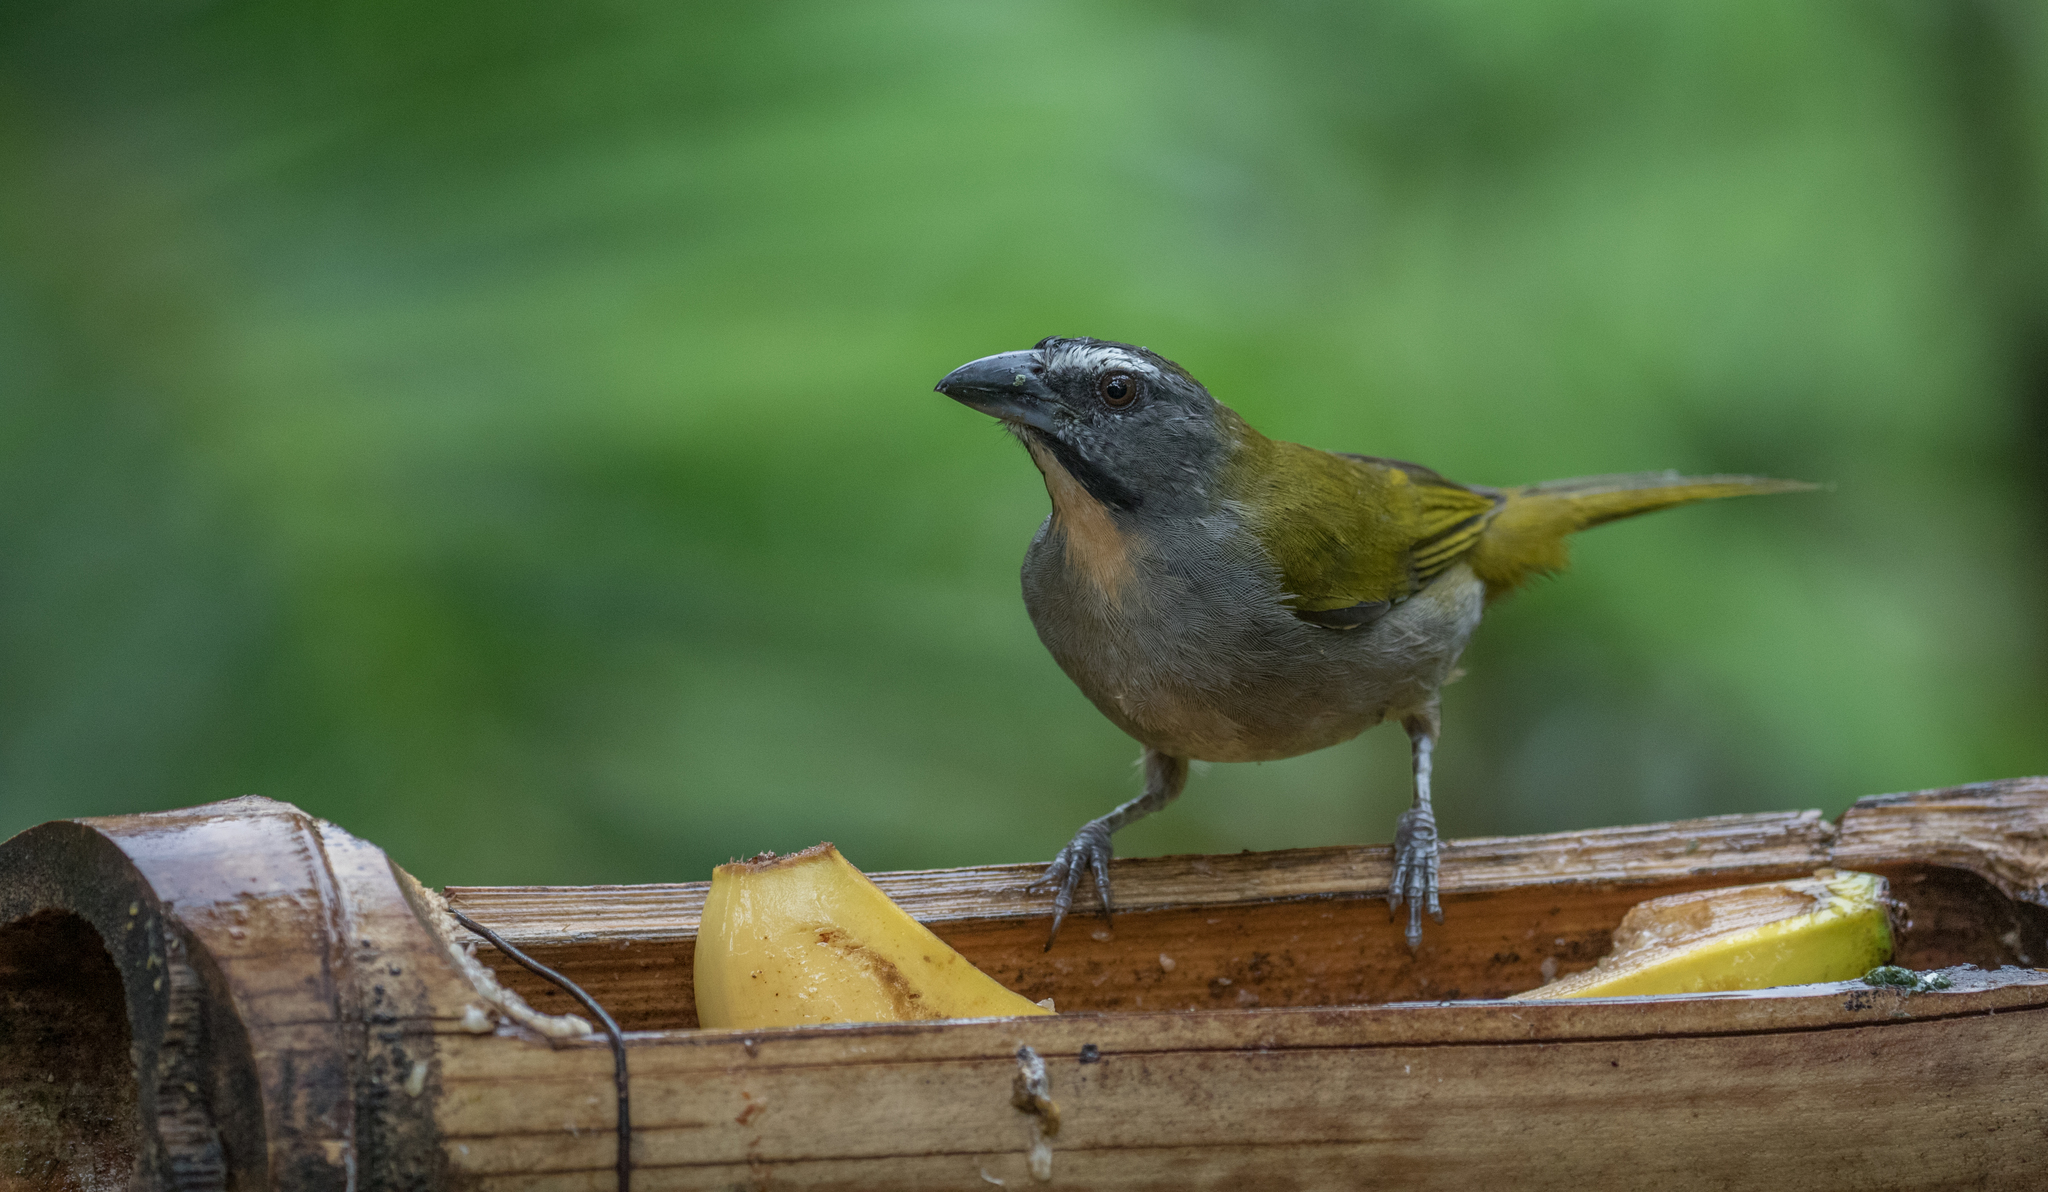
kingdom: Animalia
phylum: Chordata
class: Aves
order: Passeriformes
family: Thraupidae
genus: Saltator
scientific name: Saltator maximus
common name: Buff-throated saltator
